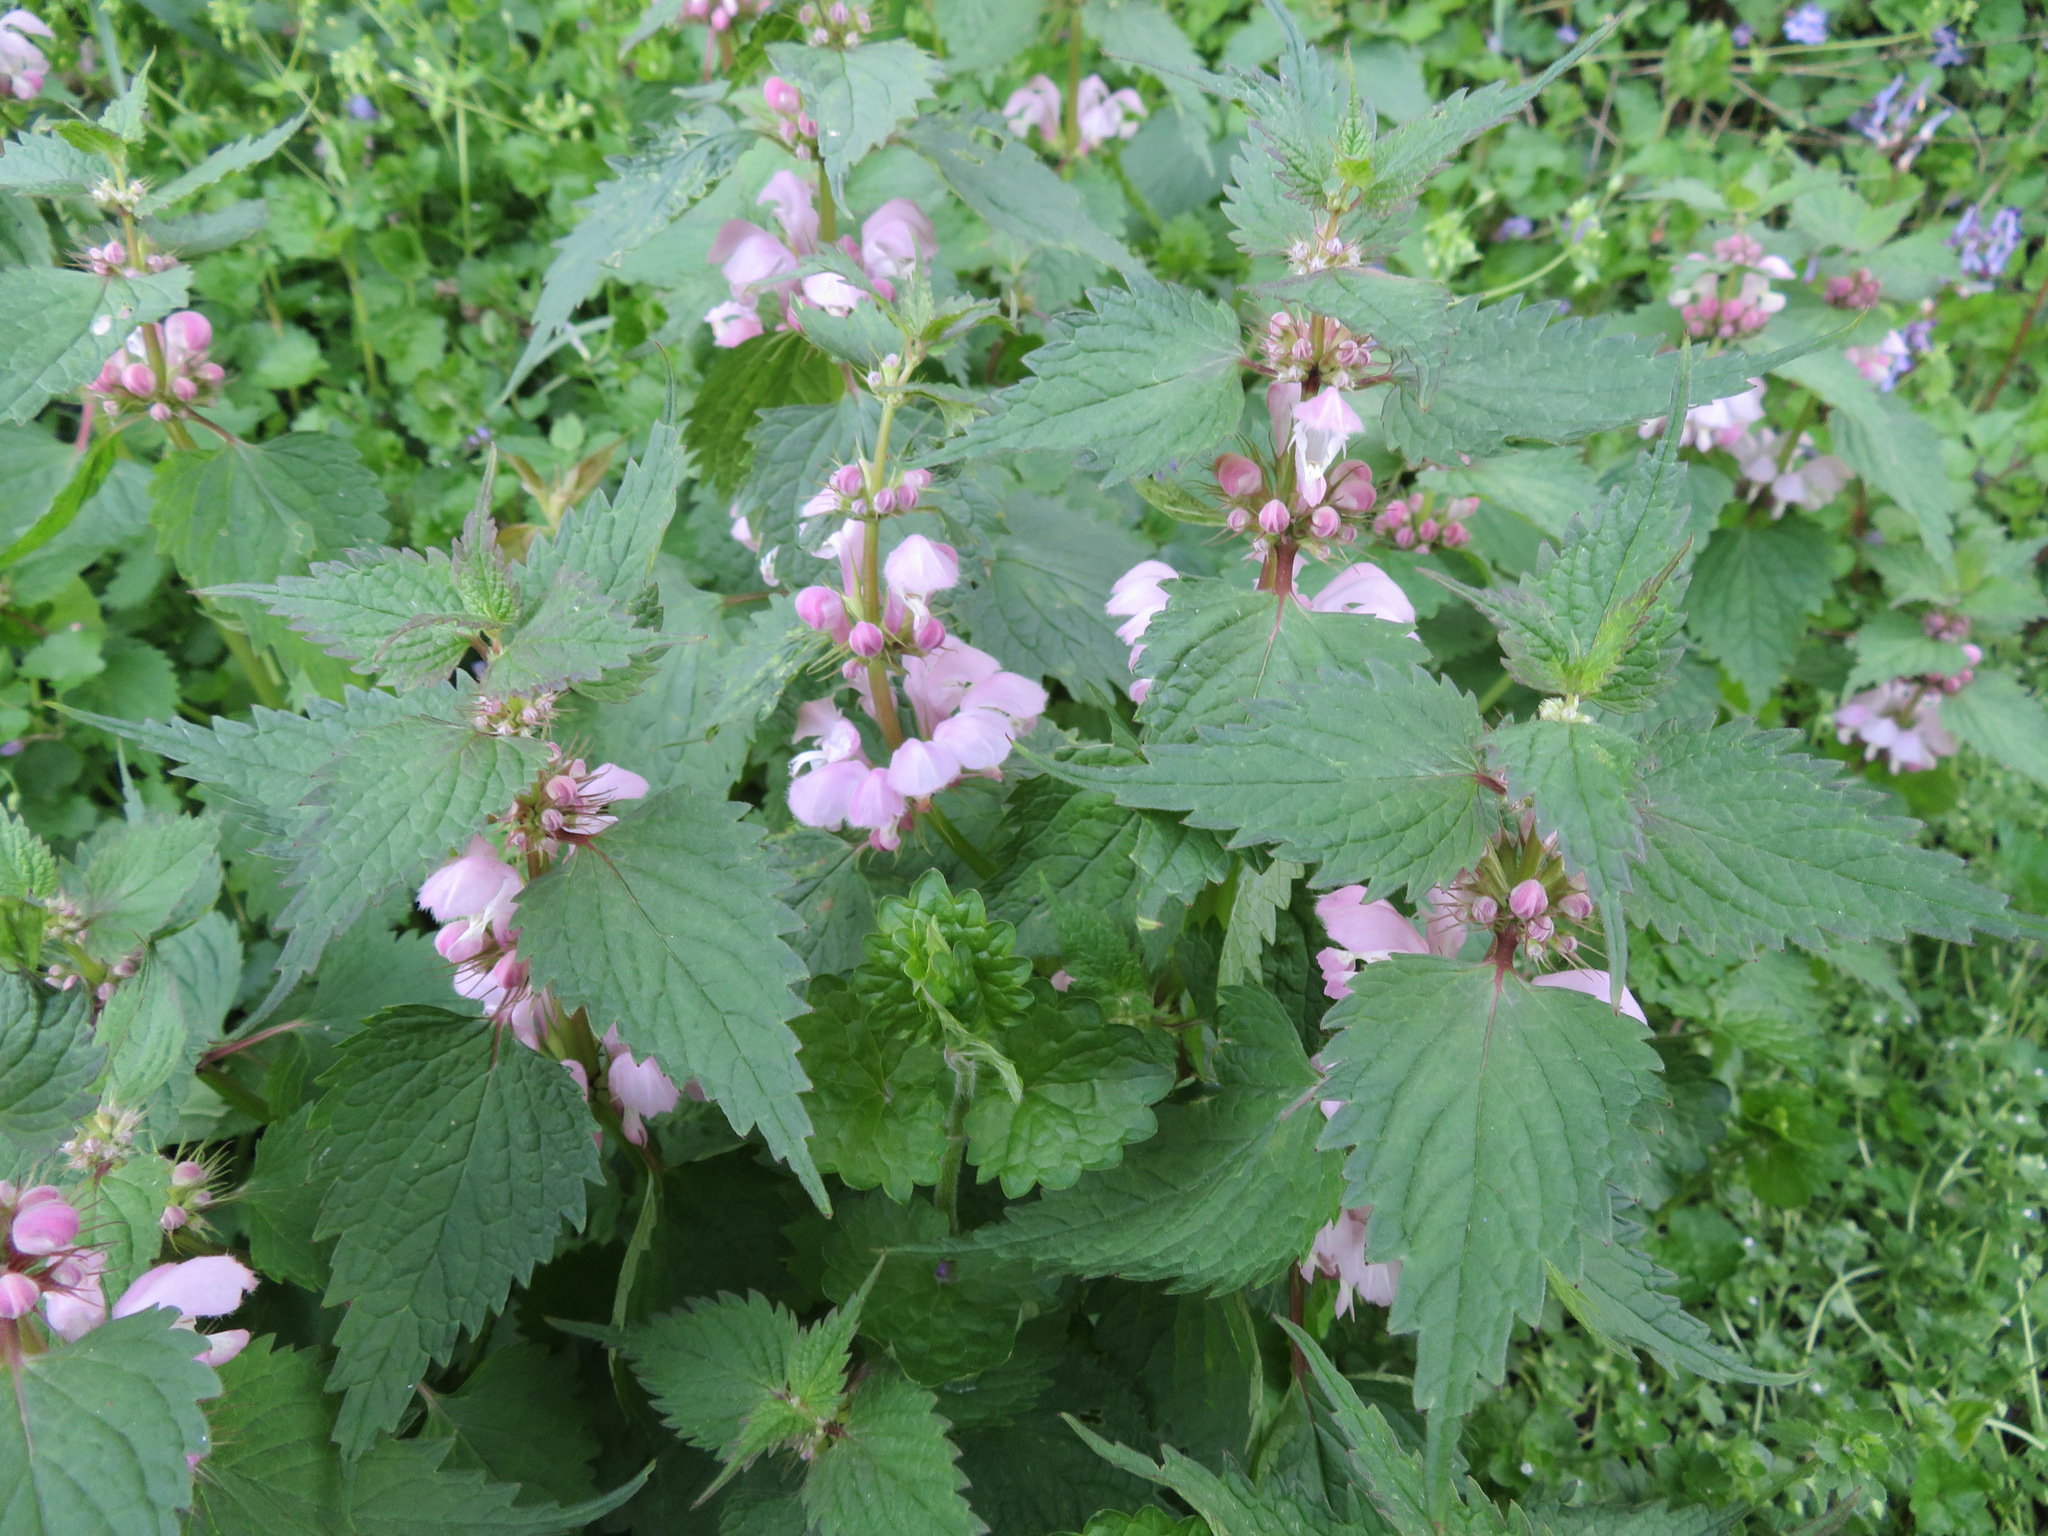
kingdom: Plantae
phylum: Tracheophyta
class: Magnoliopsida
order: Lamiales
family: Lamiaceae
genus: Lamium
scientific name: Lamium album
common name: White dead-nettle
